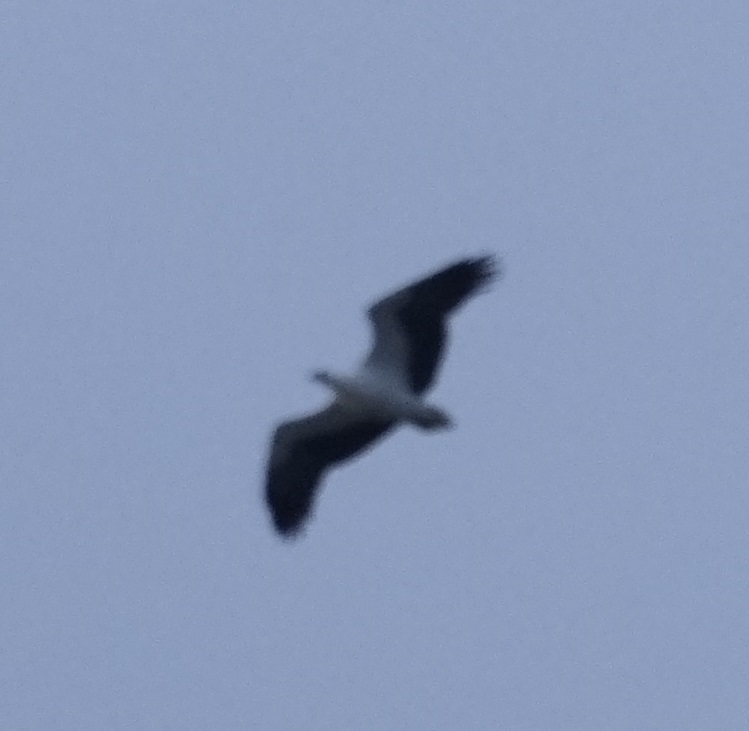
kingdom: Animalia
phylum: Chordata
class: Aves
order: Accipitriformes
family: Accipitridae
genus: Haliaeetus
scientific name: Haliaeetus leucogaster
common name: White-bellied sea eagle
